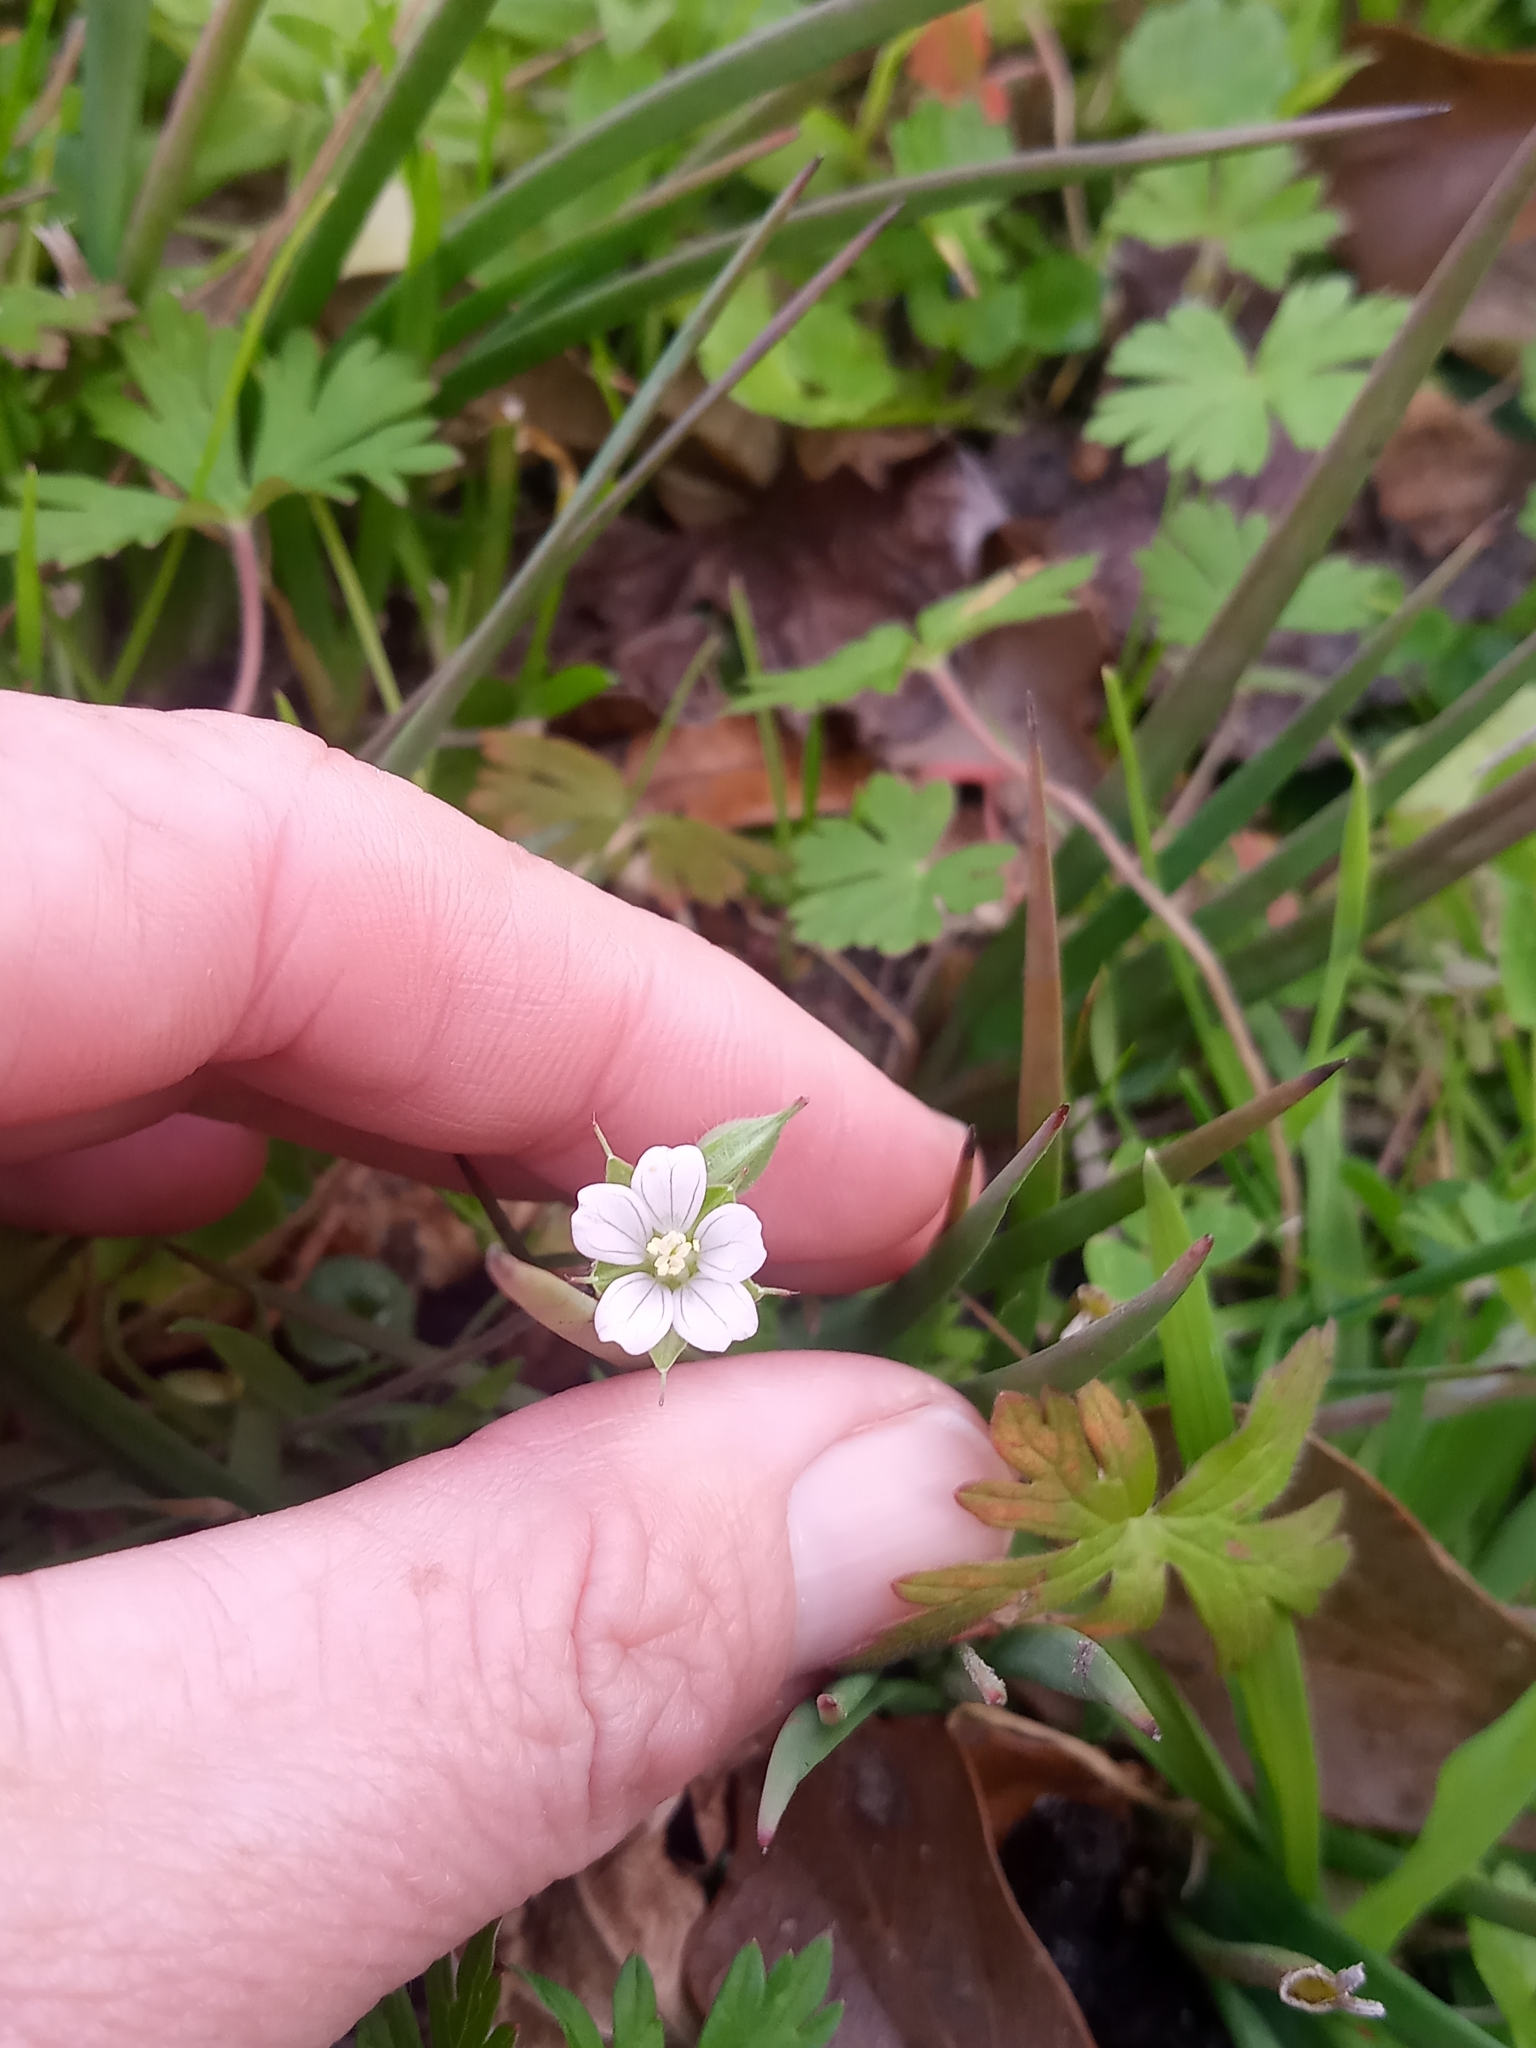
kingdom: Plantae
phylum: Tracheophyta
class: Magnoliopsida
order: Geraniales
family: Geraniaceae
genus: Geranium
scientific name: Geranium carolinianum
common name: Carolina crane's-bill
